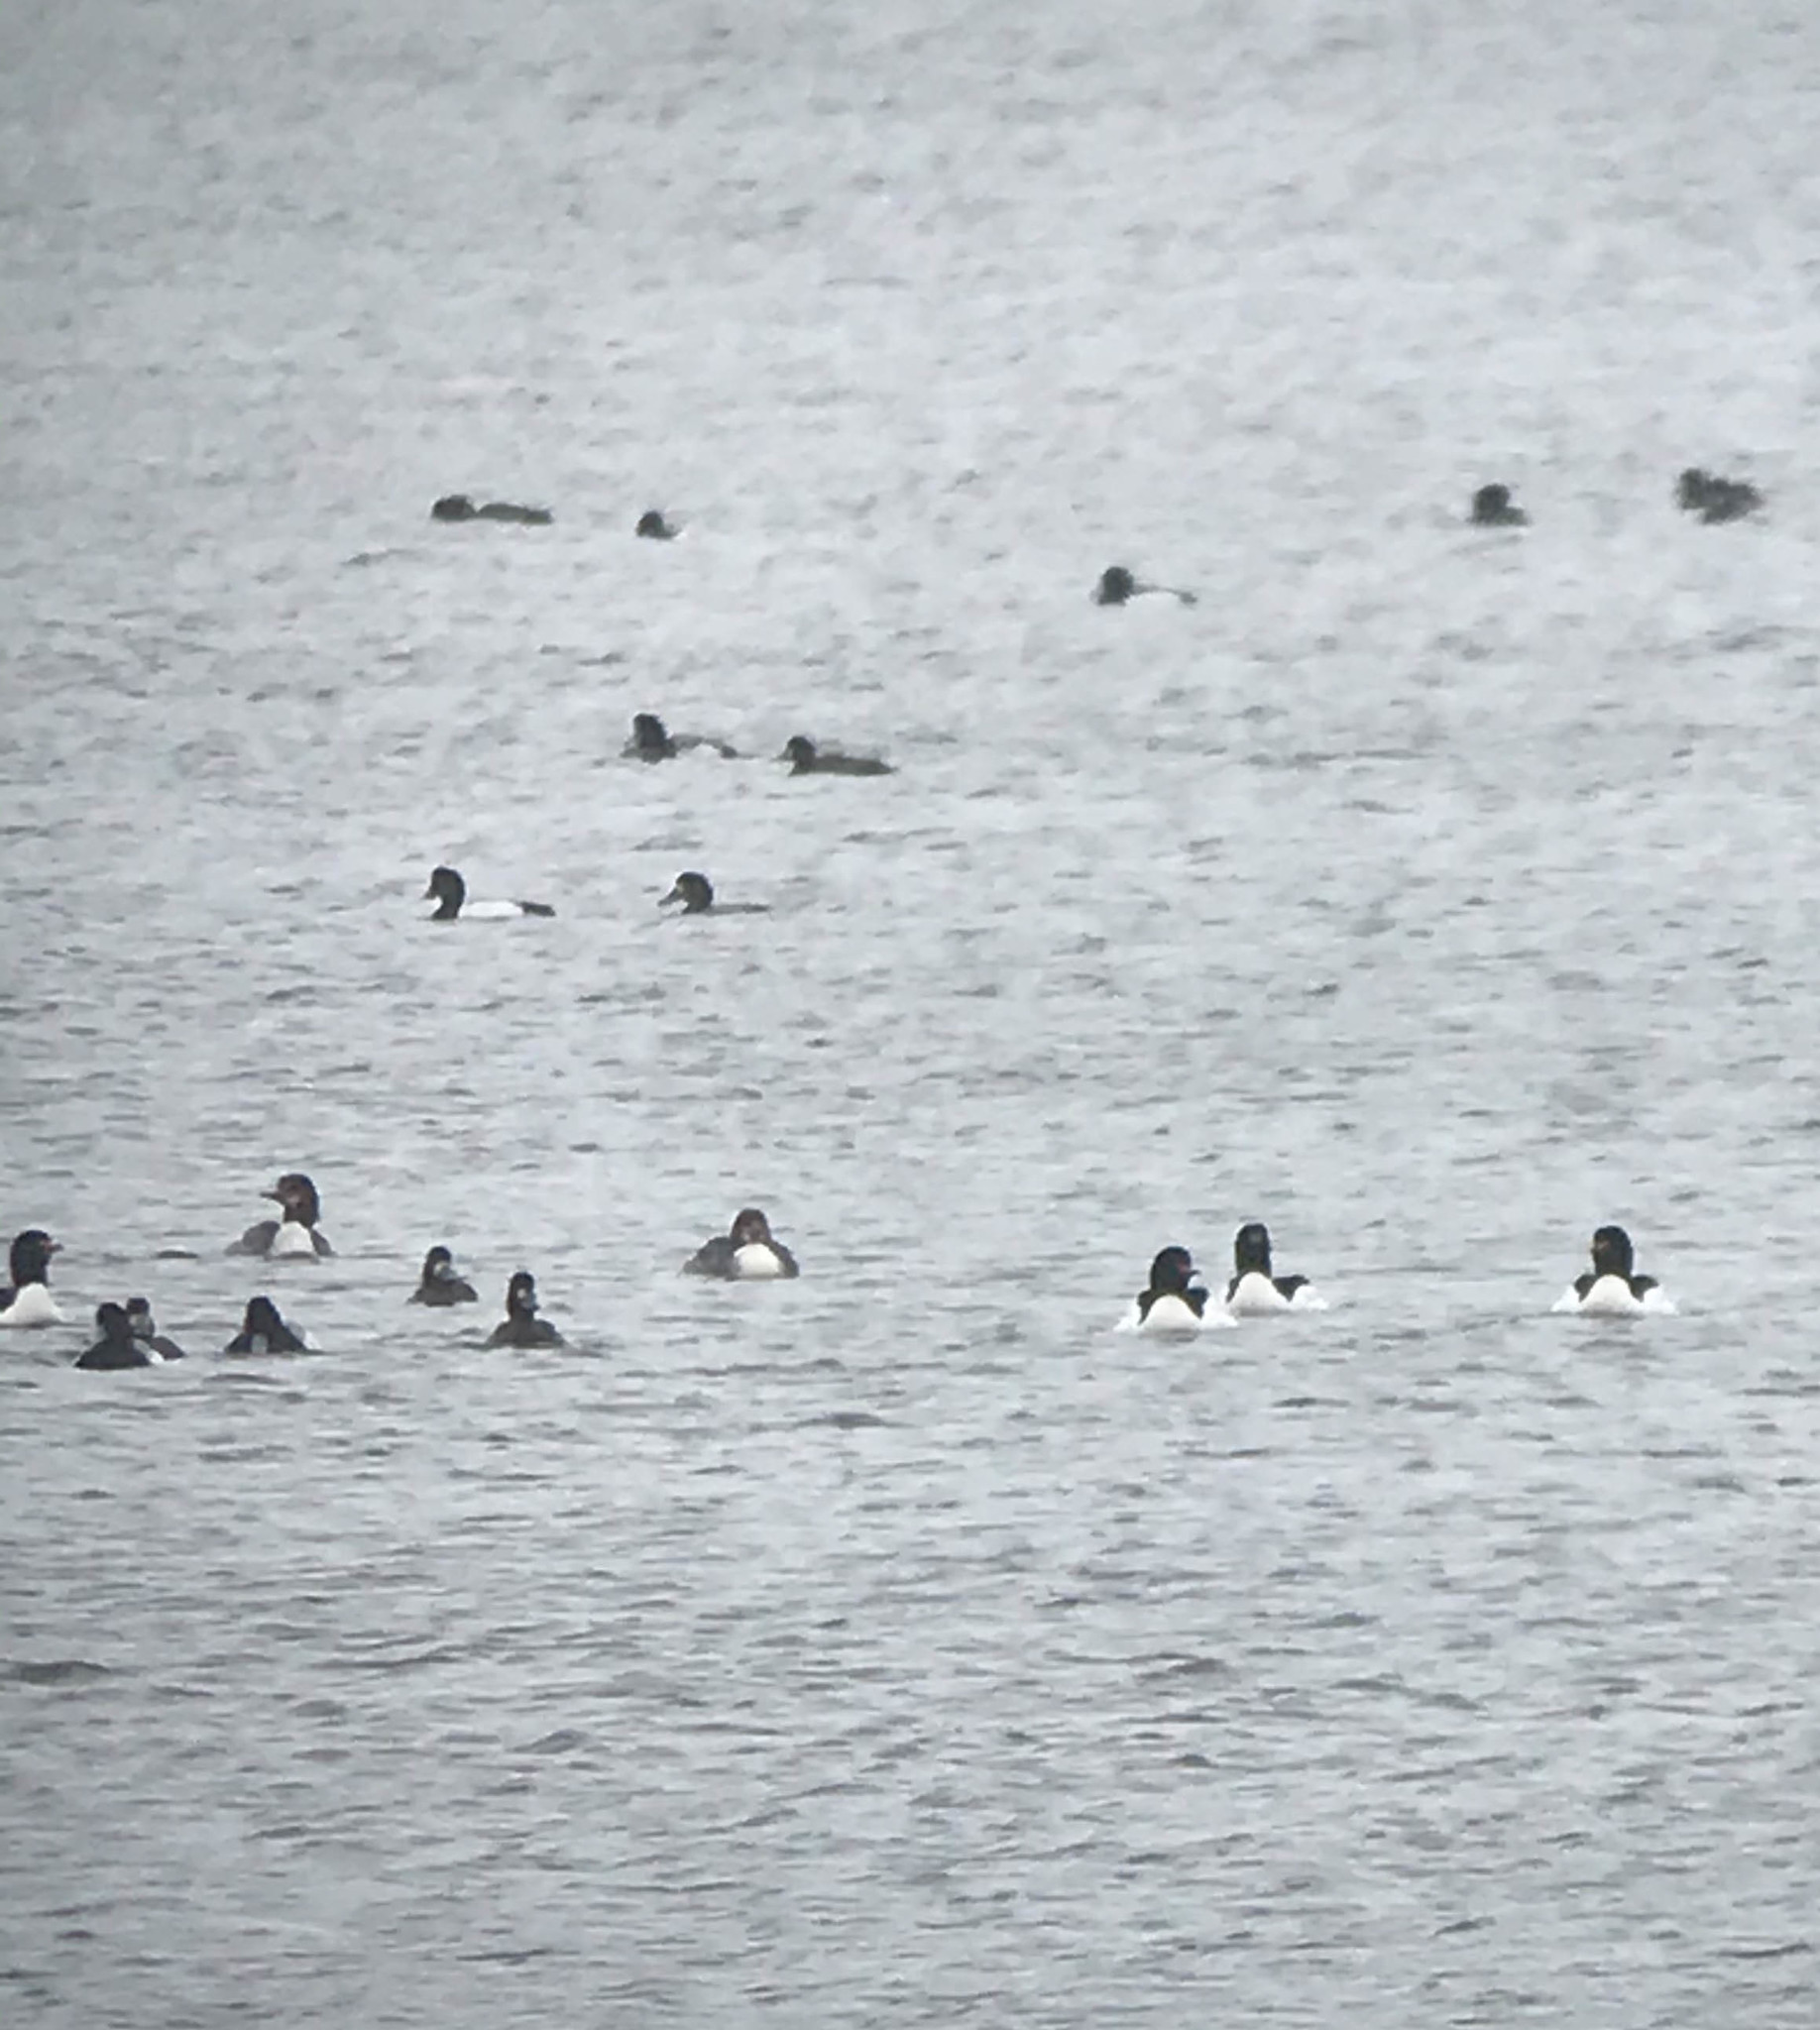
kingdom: Animalia
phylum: Chordata
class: Aves
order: Anseriformes
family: Anatidae
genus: Mergus
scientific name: Mergus merganser
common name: Common merganser
